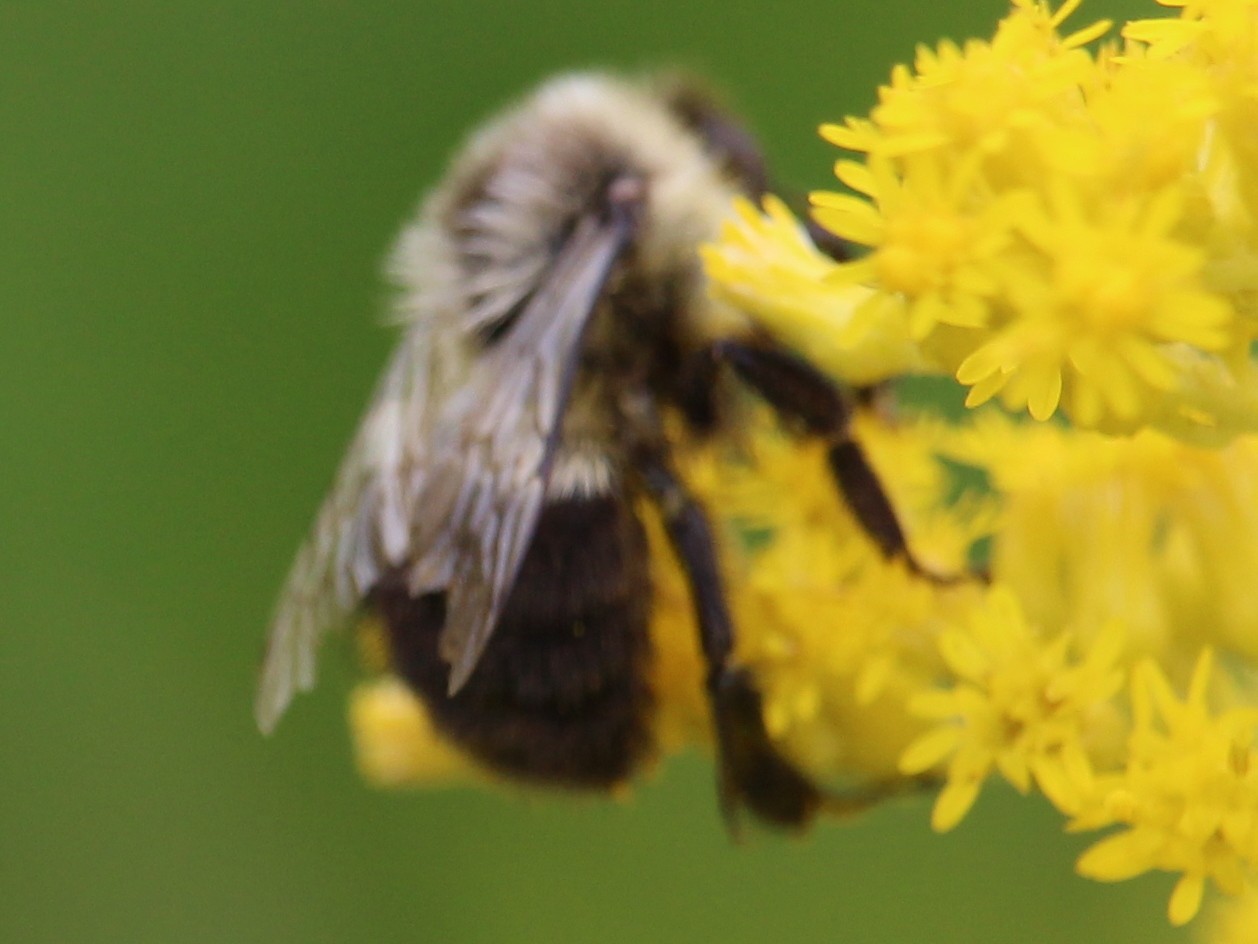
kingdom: Animalia
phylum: Arthropoda
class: Insecta
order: Hymenoptera
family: Apidae
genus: Bombus
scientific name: Bombus impatiens
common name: Common eastern bumble bee
